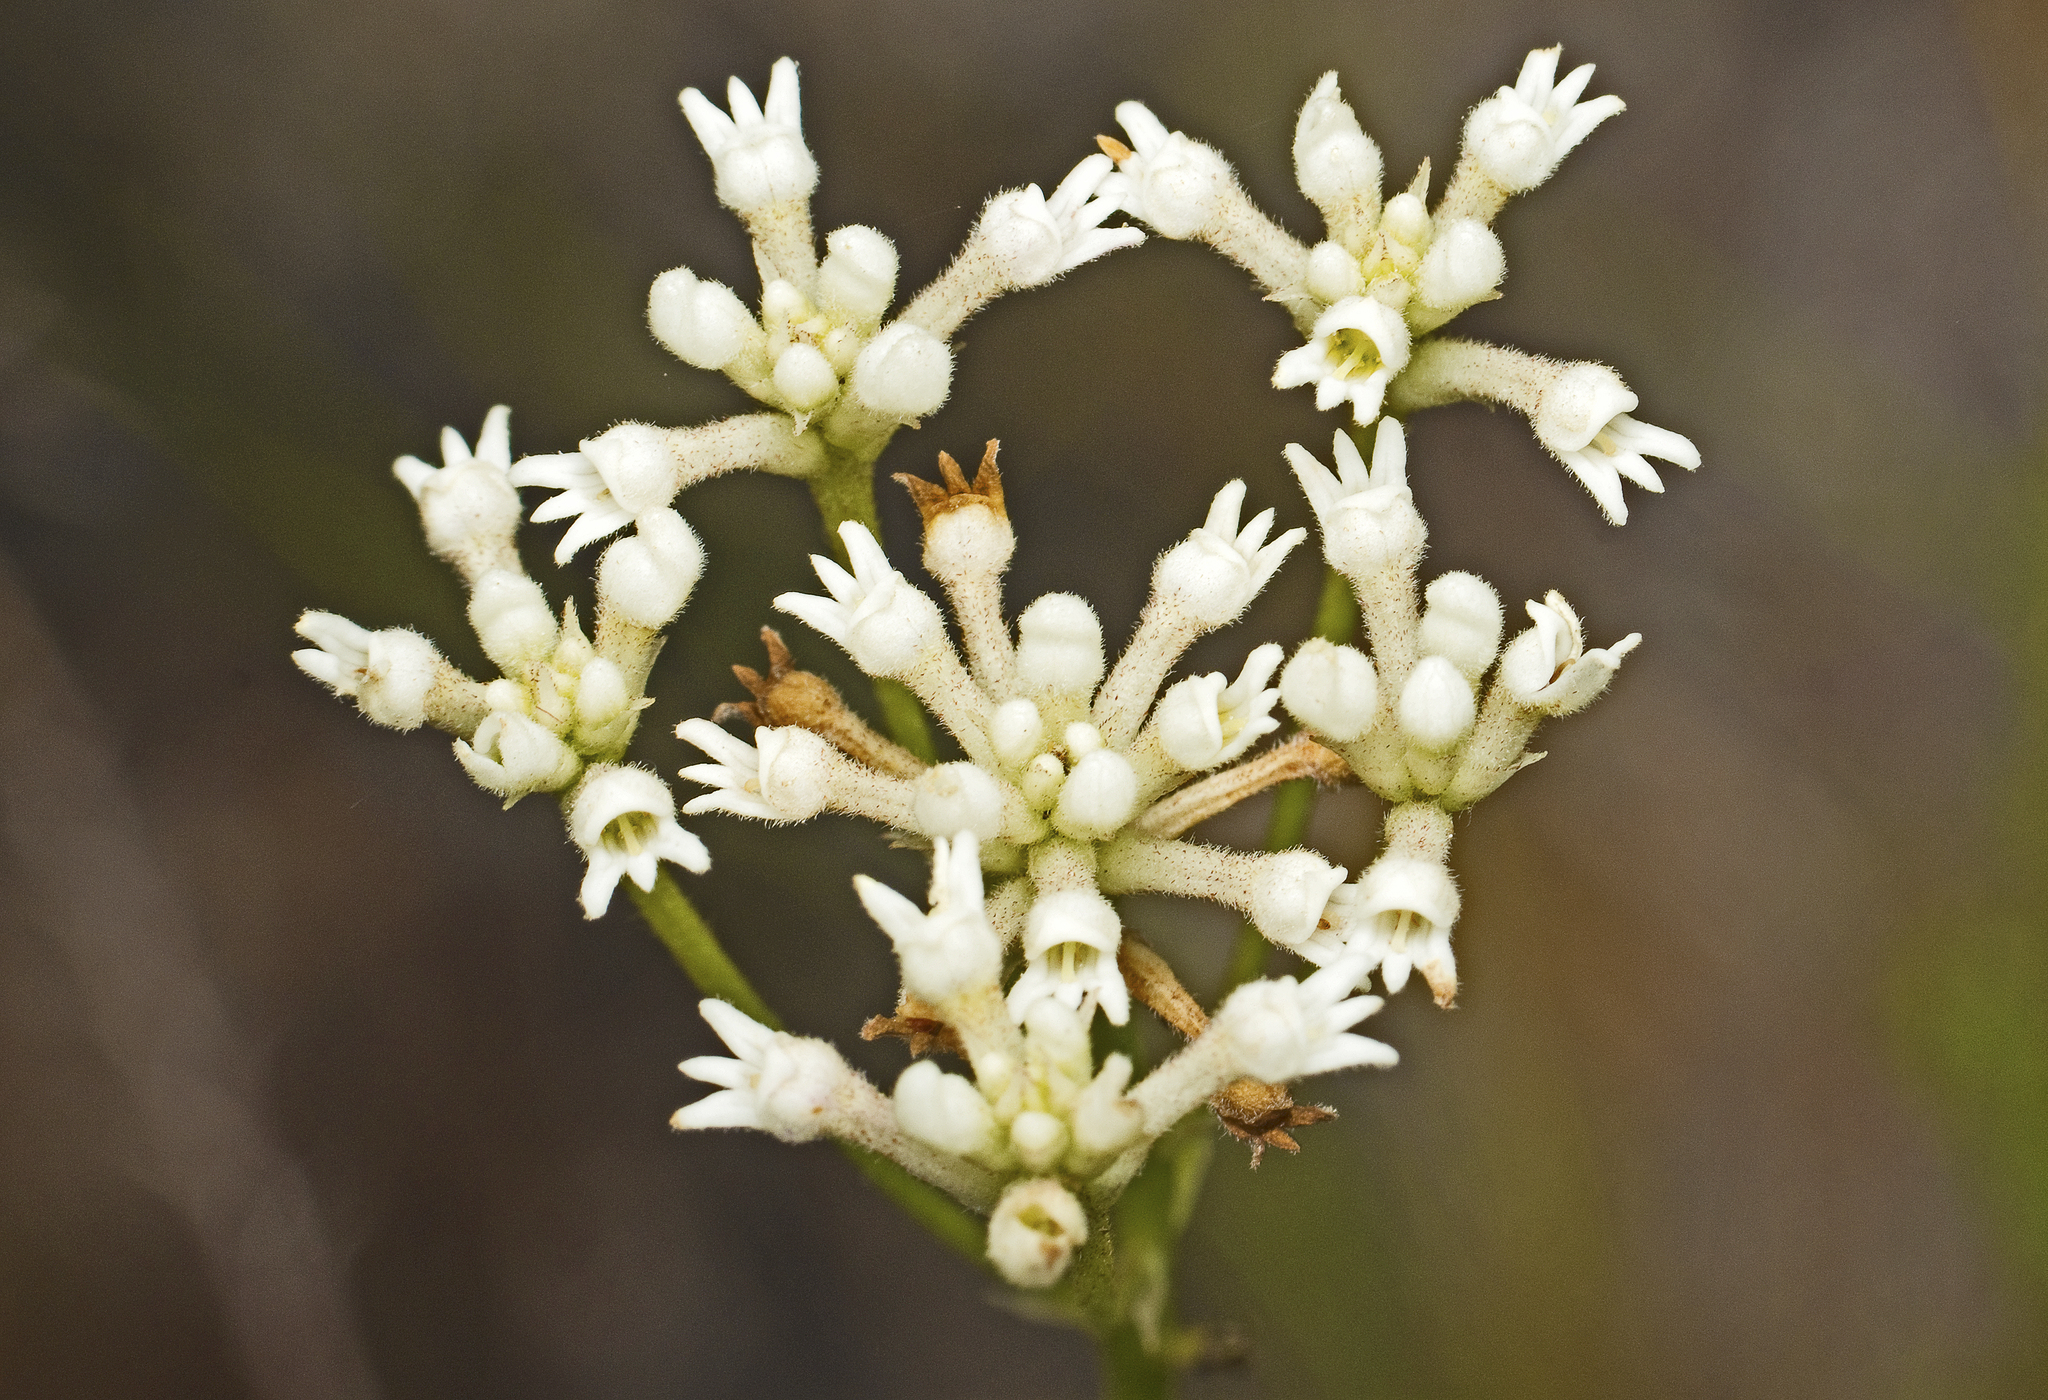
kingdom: Plantae
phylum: Tracheophyta
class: Magnoliopsida
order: Proteales
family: Proteaceae
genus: Conospermum
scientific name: Conospermum taxifolium
